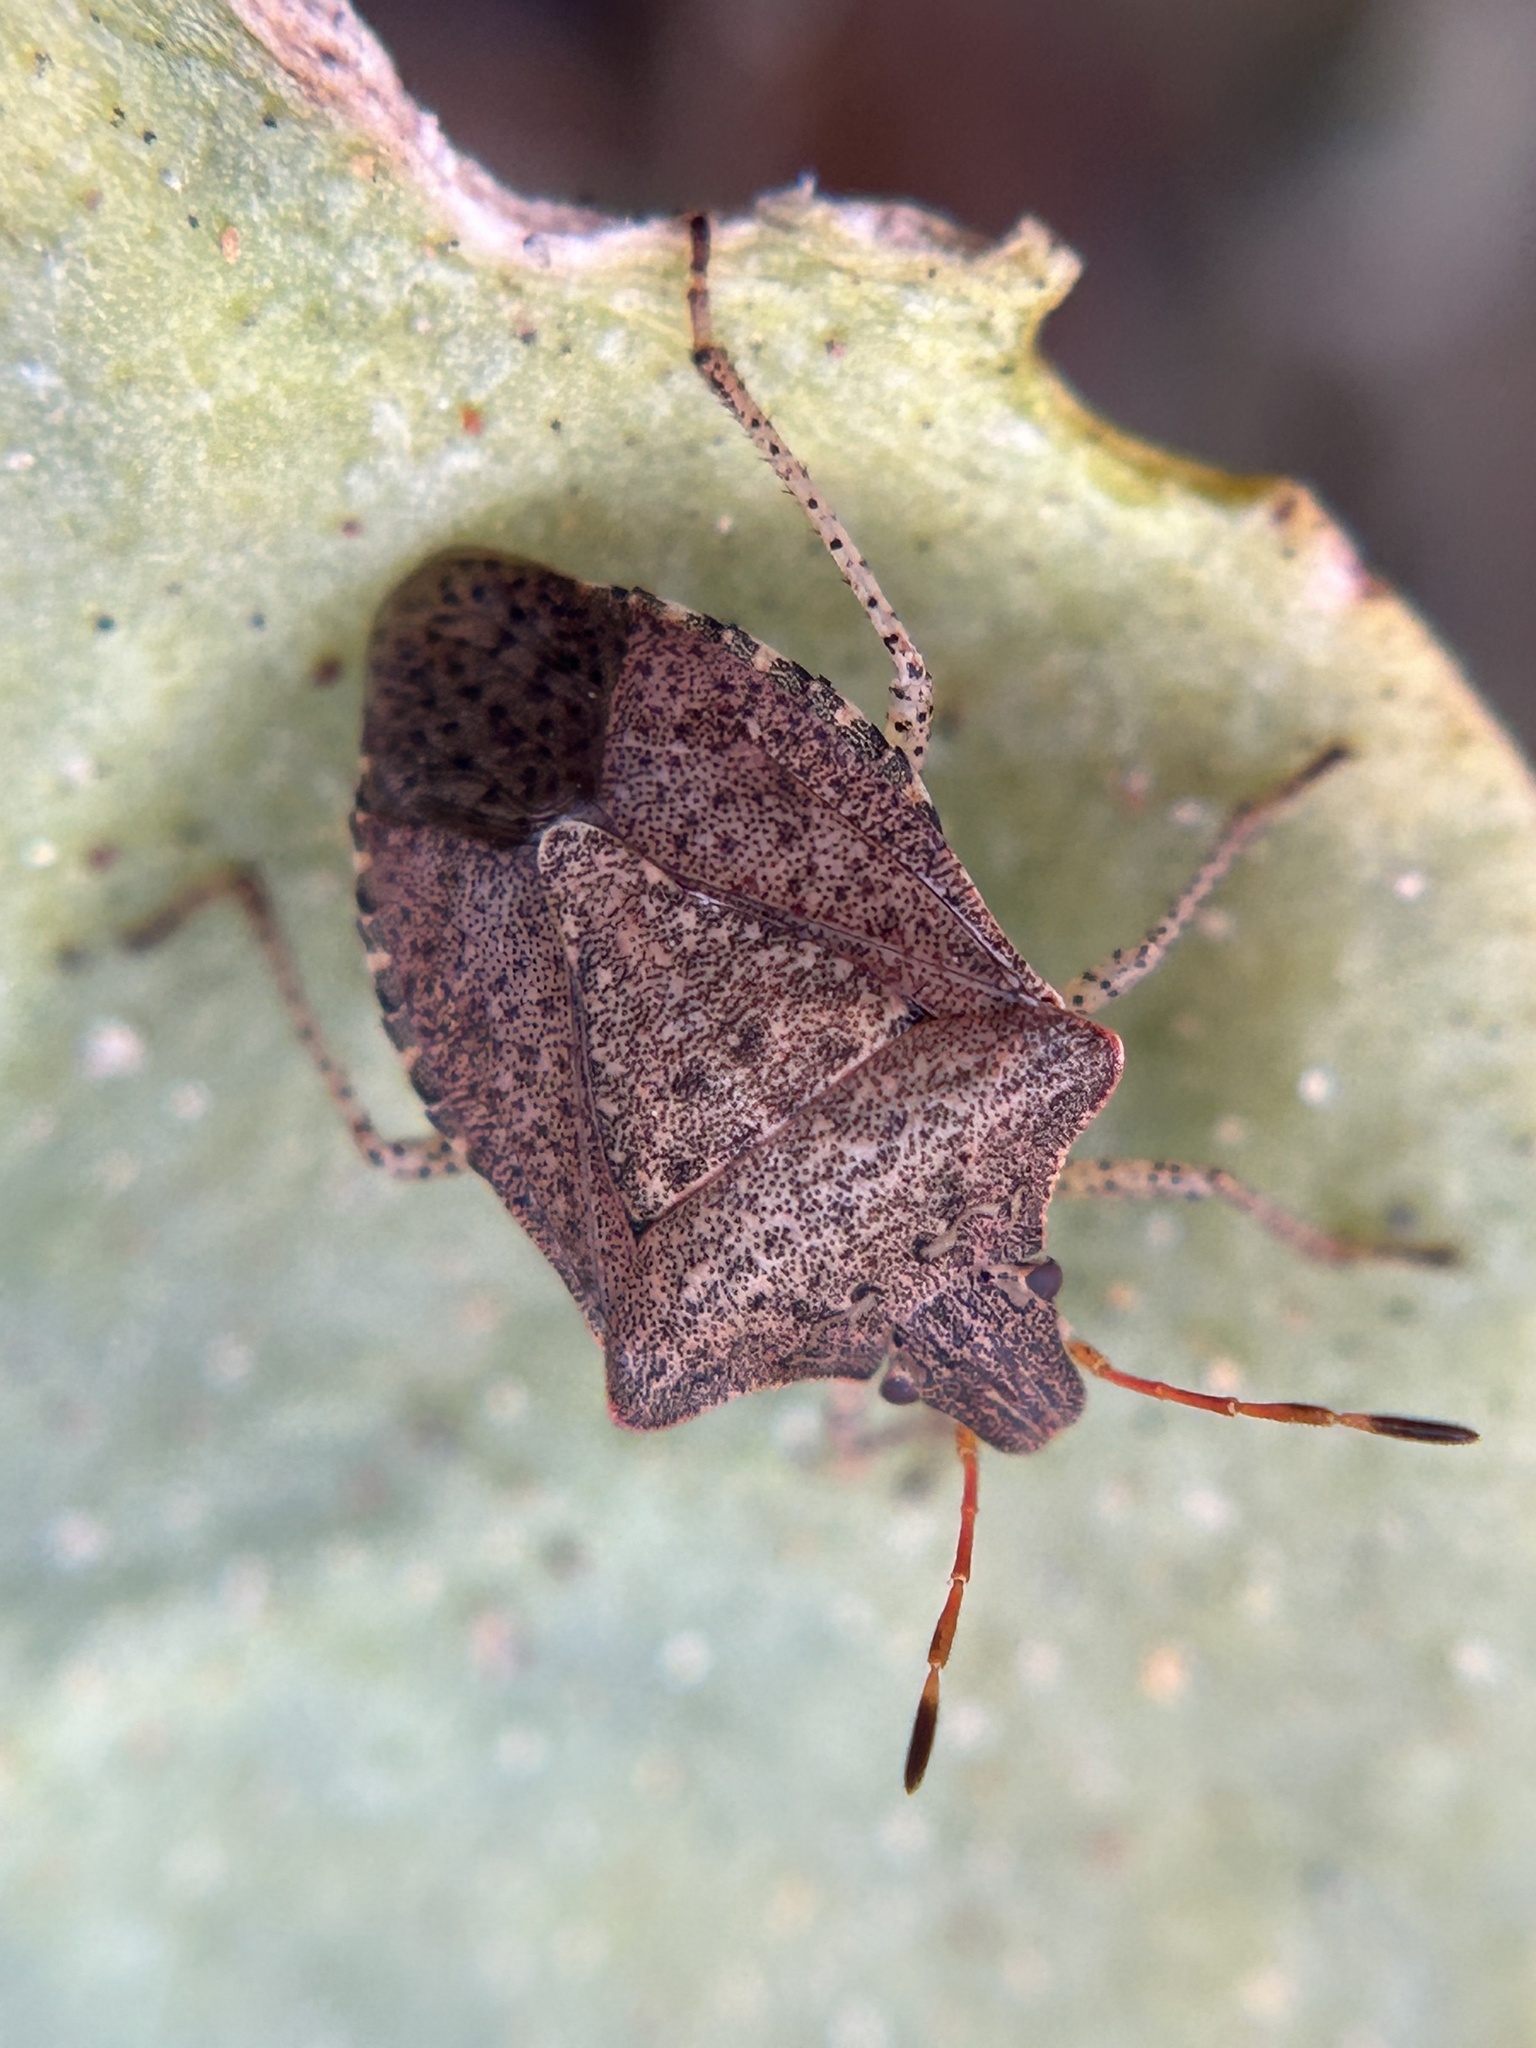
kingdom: Animalia
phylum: Arthropoda
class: Insecta
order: Hemiptera
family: Pentatomidae
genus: Halyomorpha
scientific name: Halyomorpha halys
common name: Brown marmorated stink bug
